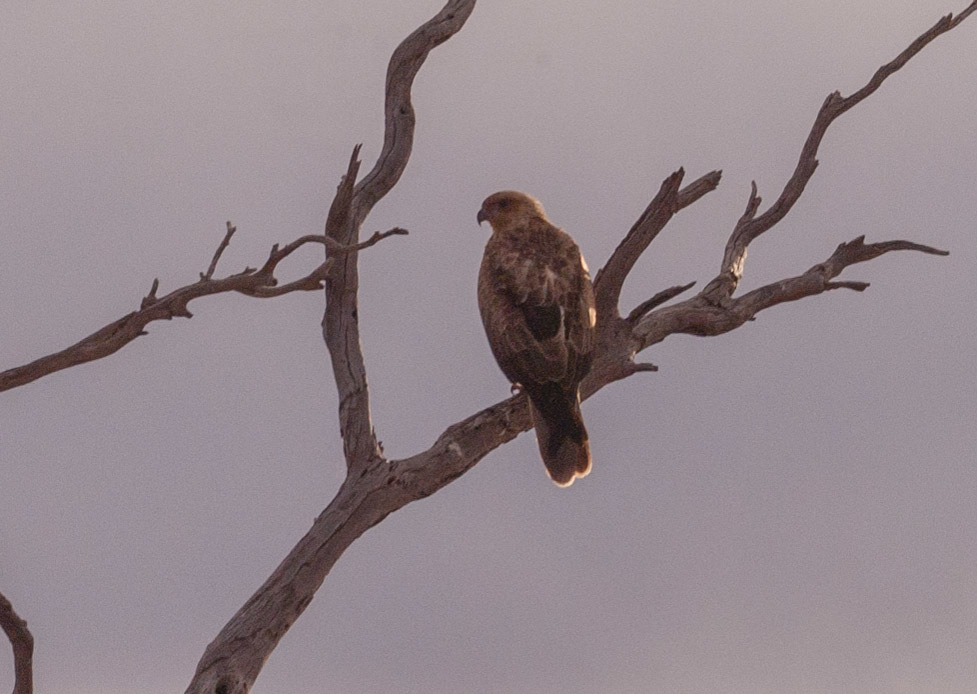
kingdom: Animalia
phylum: Chordata
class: Aves
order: Accipitriformes
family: Accipitridae
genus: Haliastur
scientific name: Haliastur sphenurus
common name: Whistling kite
